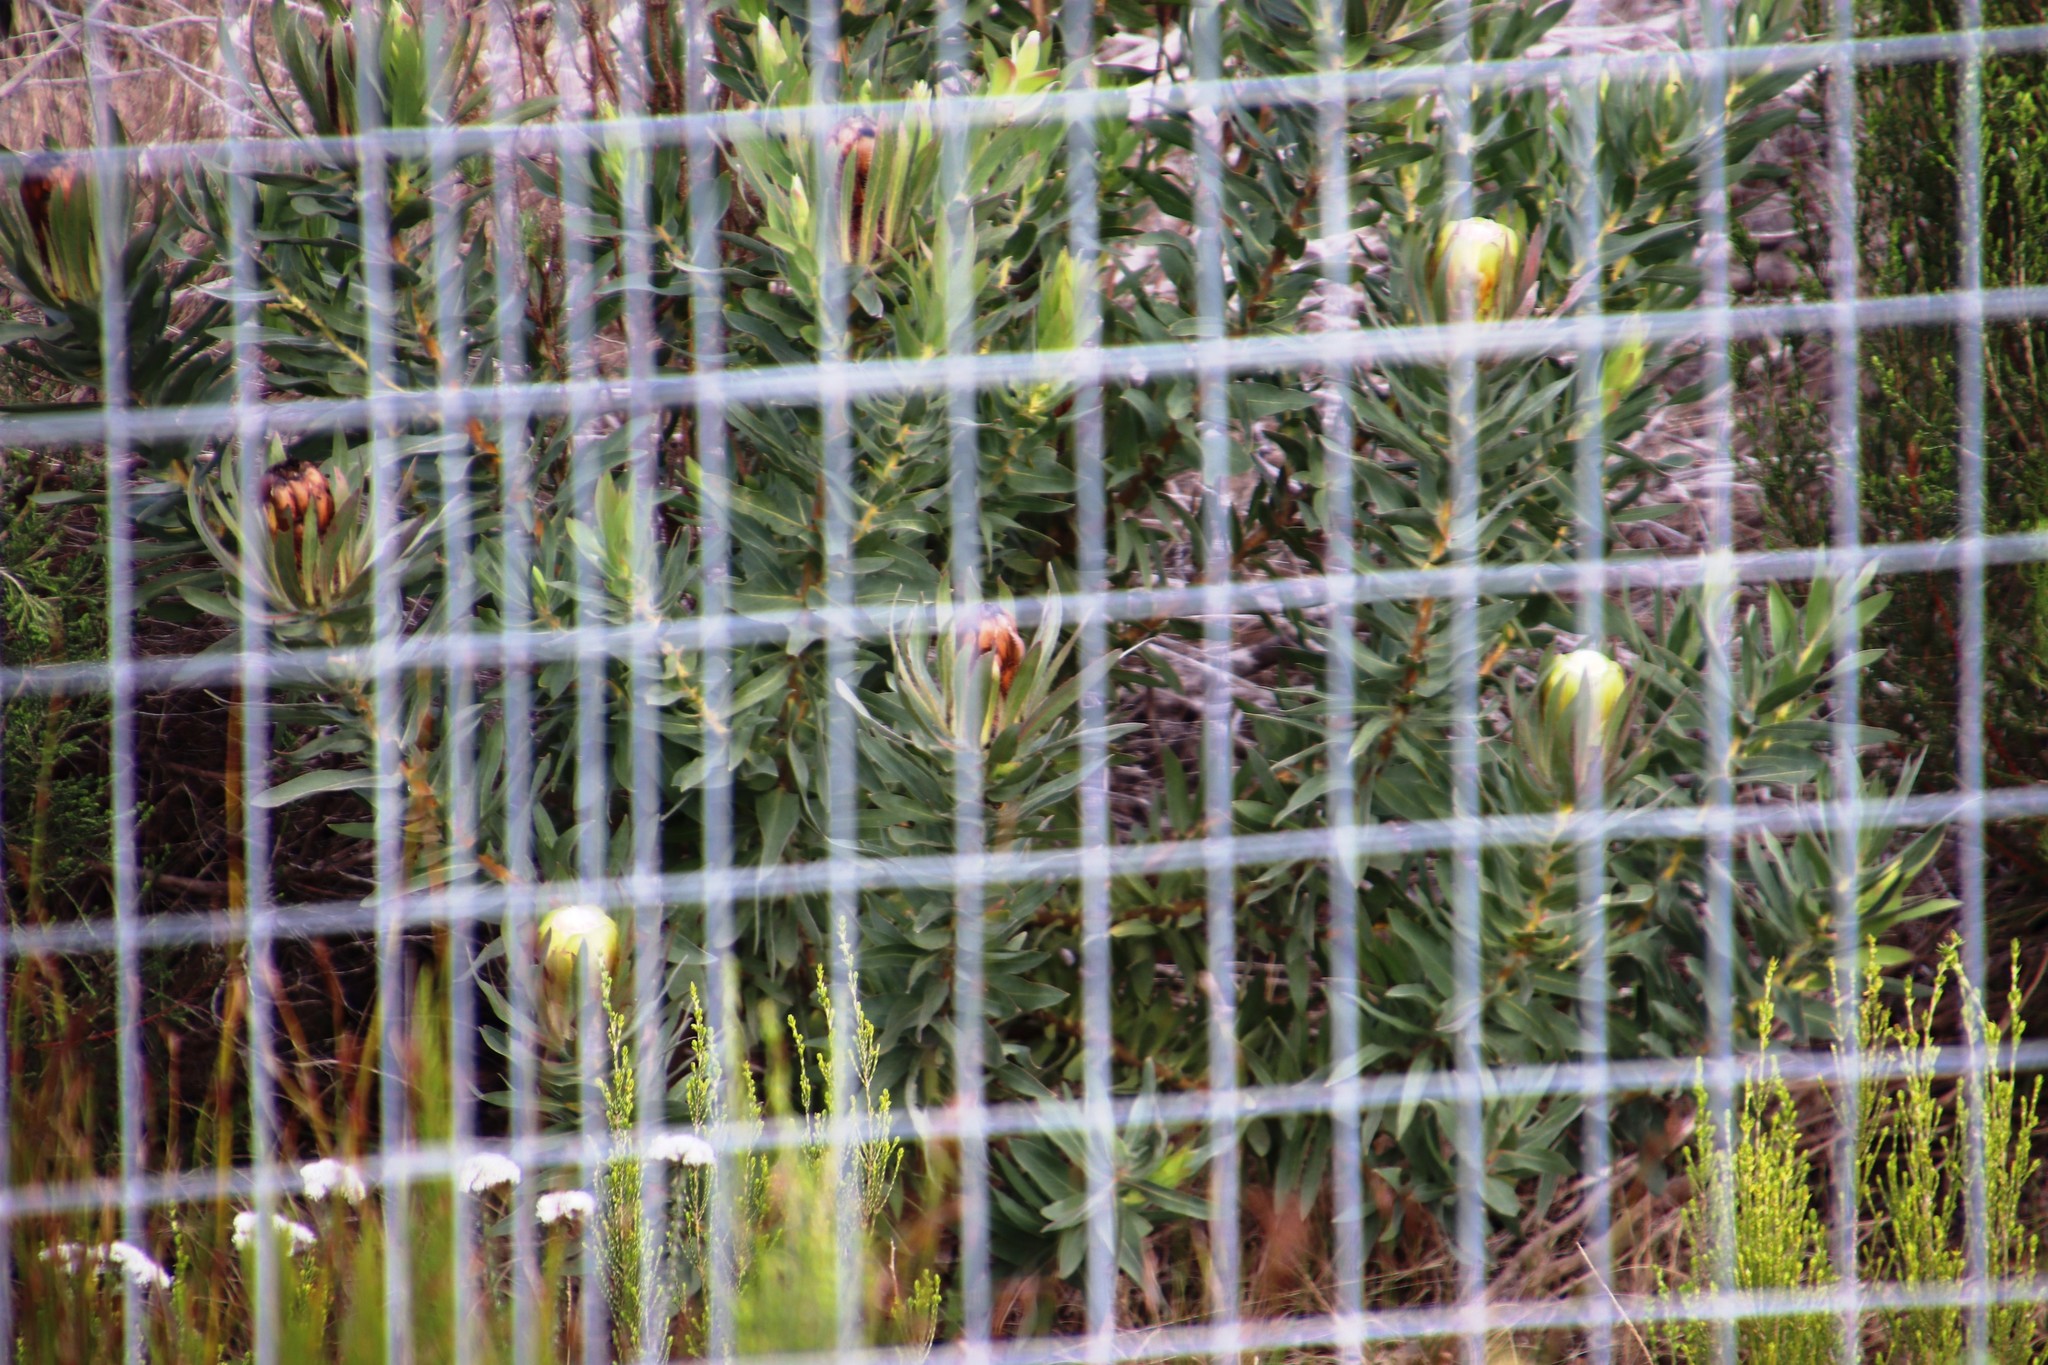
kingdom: Plantae
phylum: Tracheophyta
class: Magnoliopsida
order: Proteales
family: Proteaceae
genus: Protea
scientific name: Protea coronata
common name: Green sugarbush
